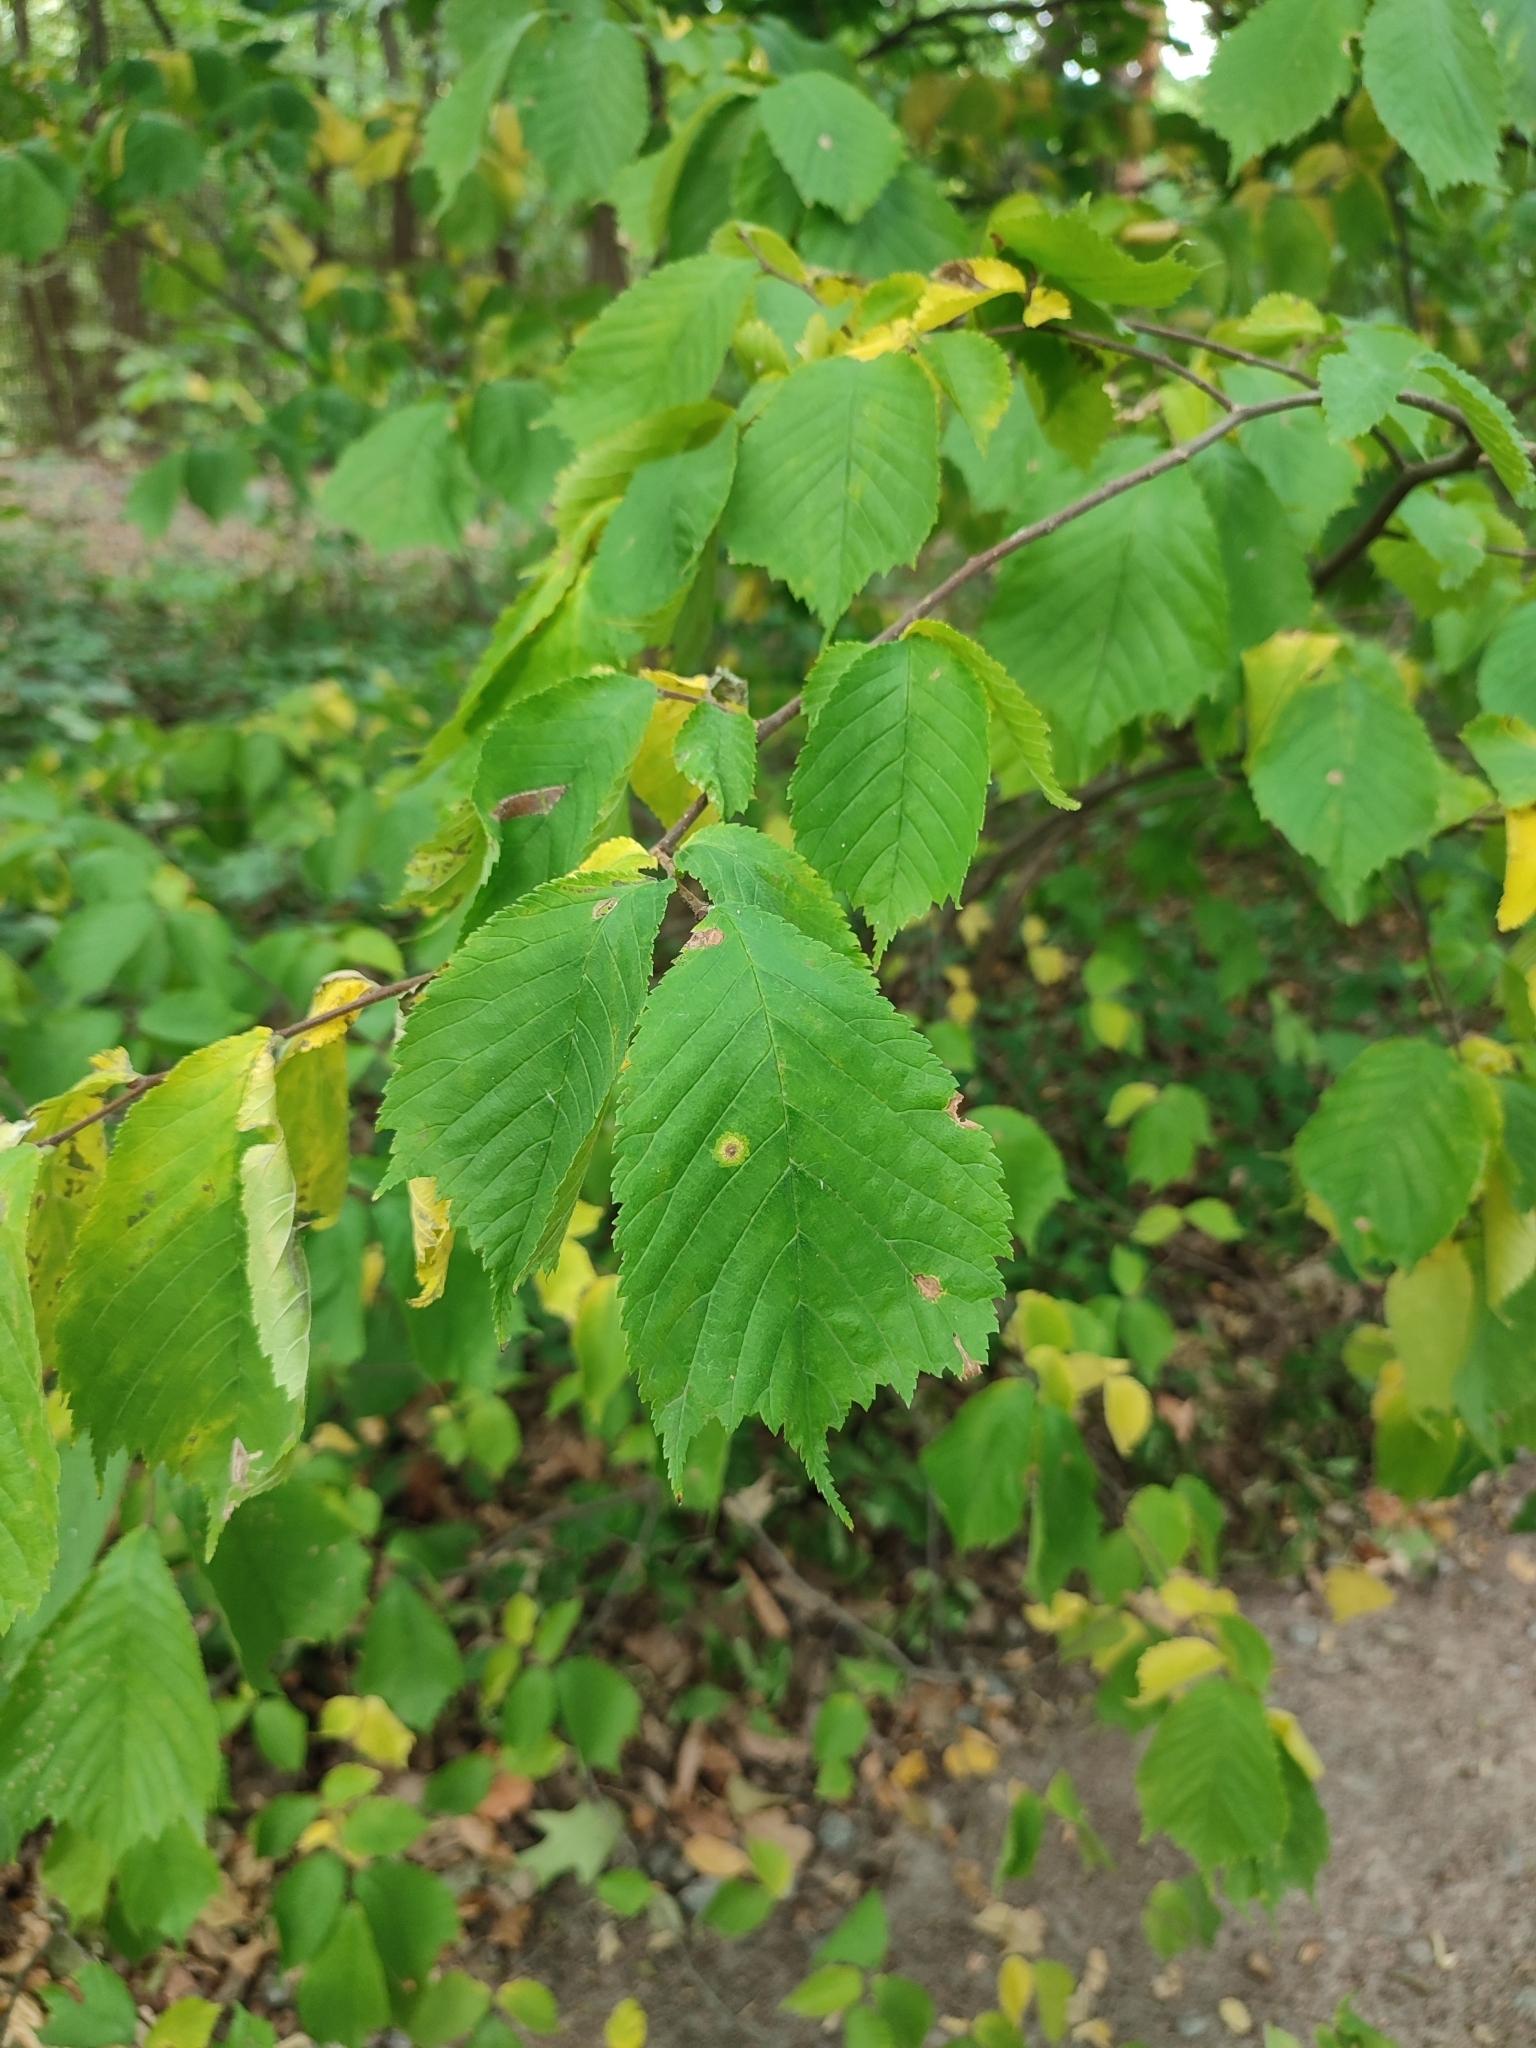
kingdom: Plantae
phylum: Tracheophyta
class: Magnoliopsida
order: Rosales
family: Ulmaceae
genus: Ulmus
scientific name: Ulmus glabra
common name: Wych elm
